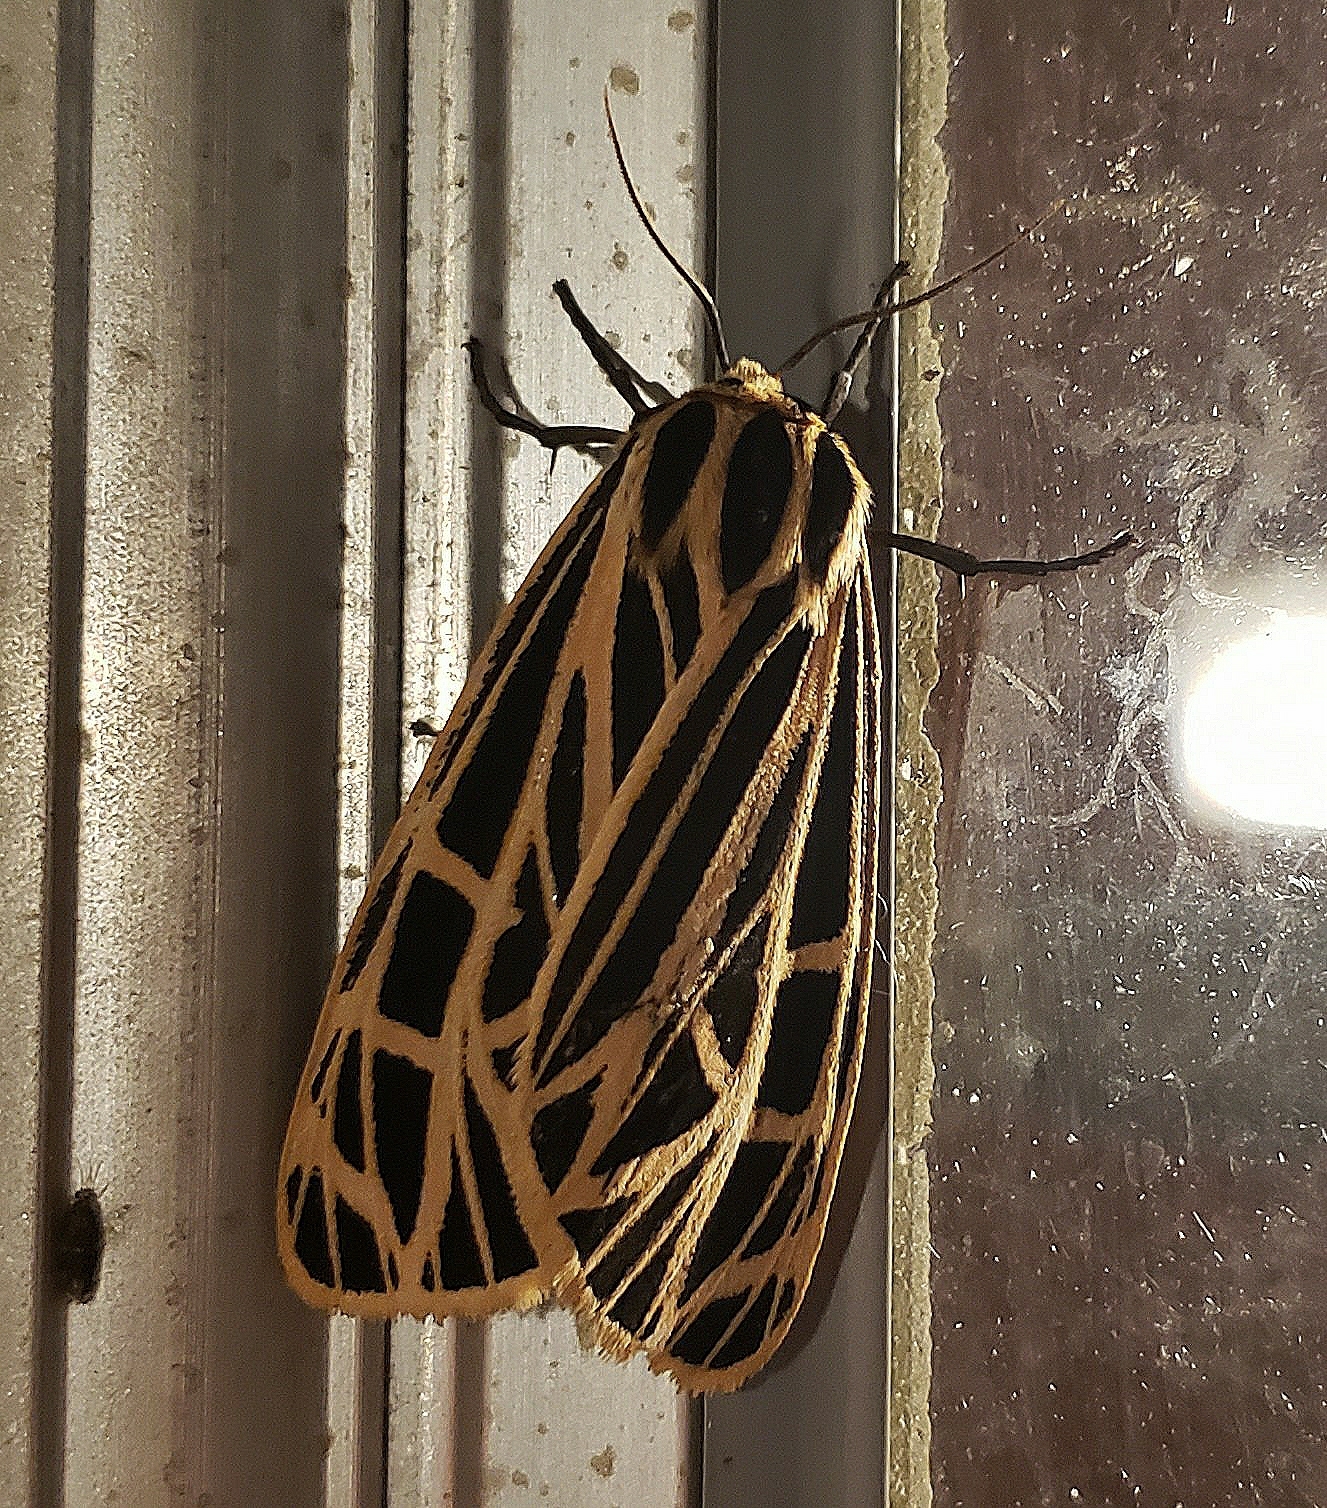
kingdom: Animalia
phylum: Arthropoda
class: Insecta
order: Lepidoptera
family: Erebidae
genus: Grammia
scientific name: Grammia virgo
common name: Virgin tiger moth
